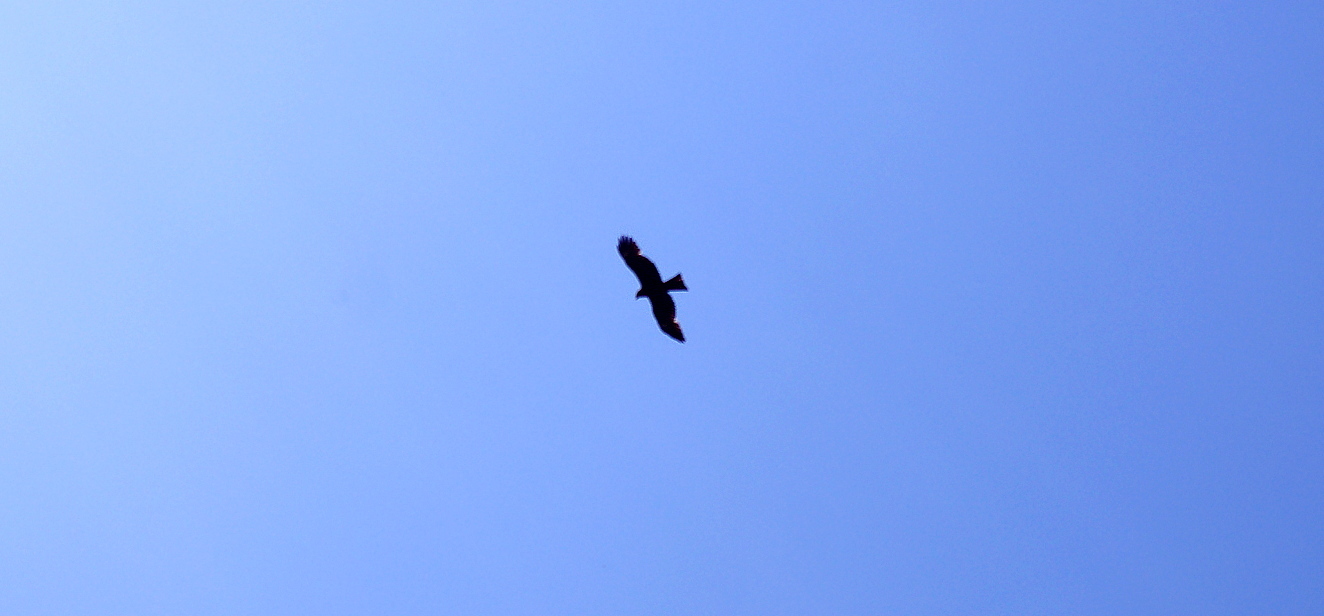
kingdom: Animalia
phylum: Chordata
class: Aves
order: Accipitriformes
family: Accipitridae
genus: Milvus
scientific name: Milvus migrans
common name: Black kite
